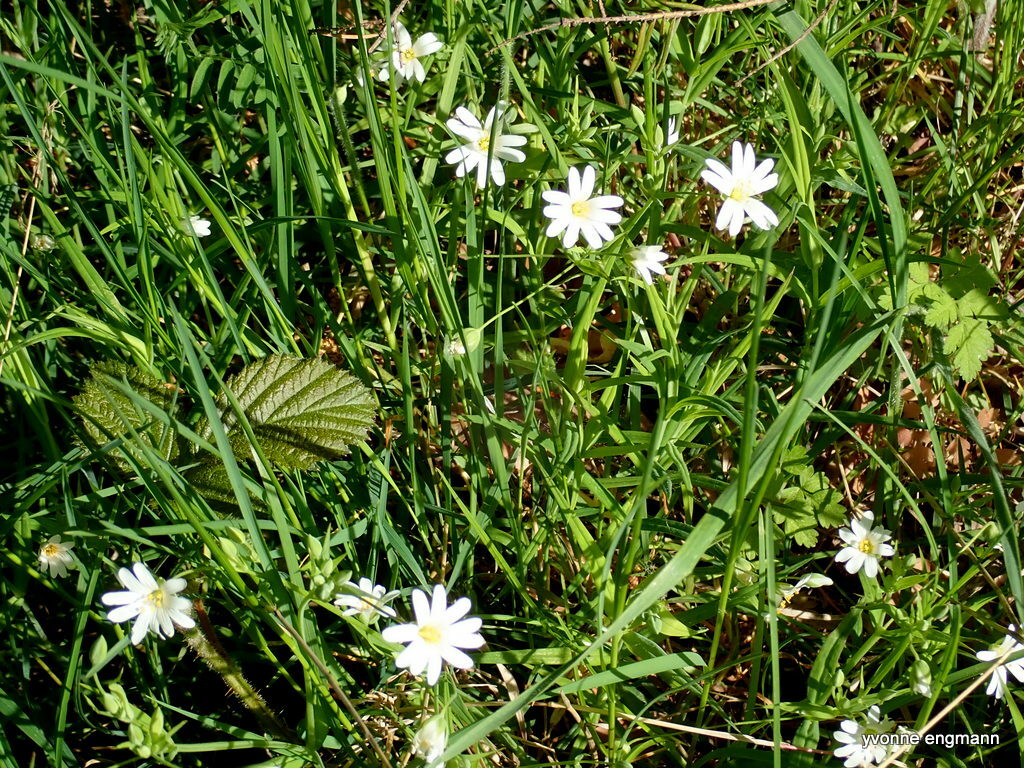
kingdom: Plantae
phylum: Tracheophyta
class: Magnoliopsida
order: Caryophyllales
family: Caryophyllaceae
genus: Rabelera
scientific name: Rabelera holostea
